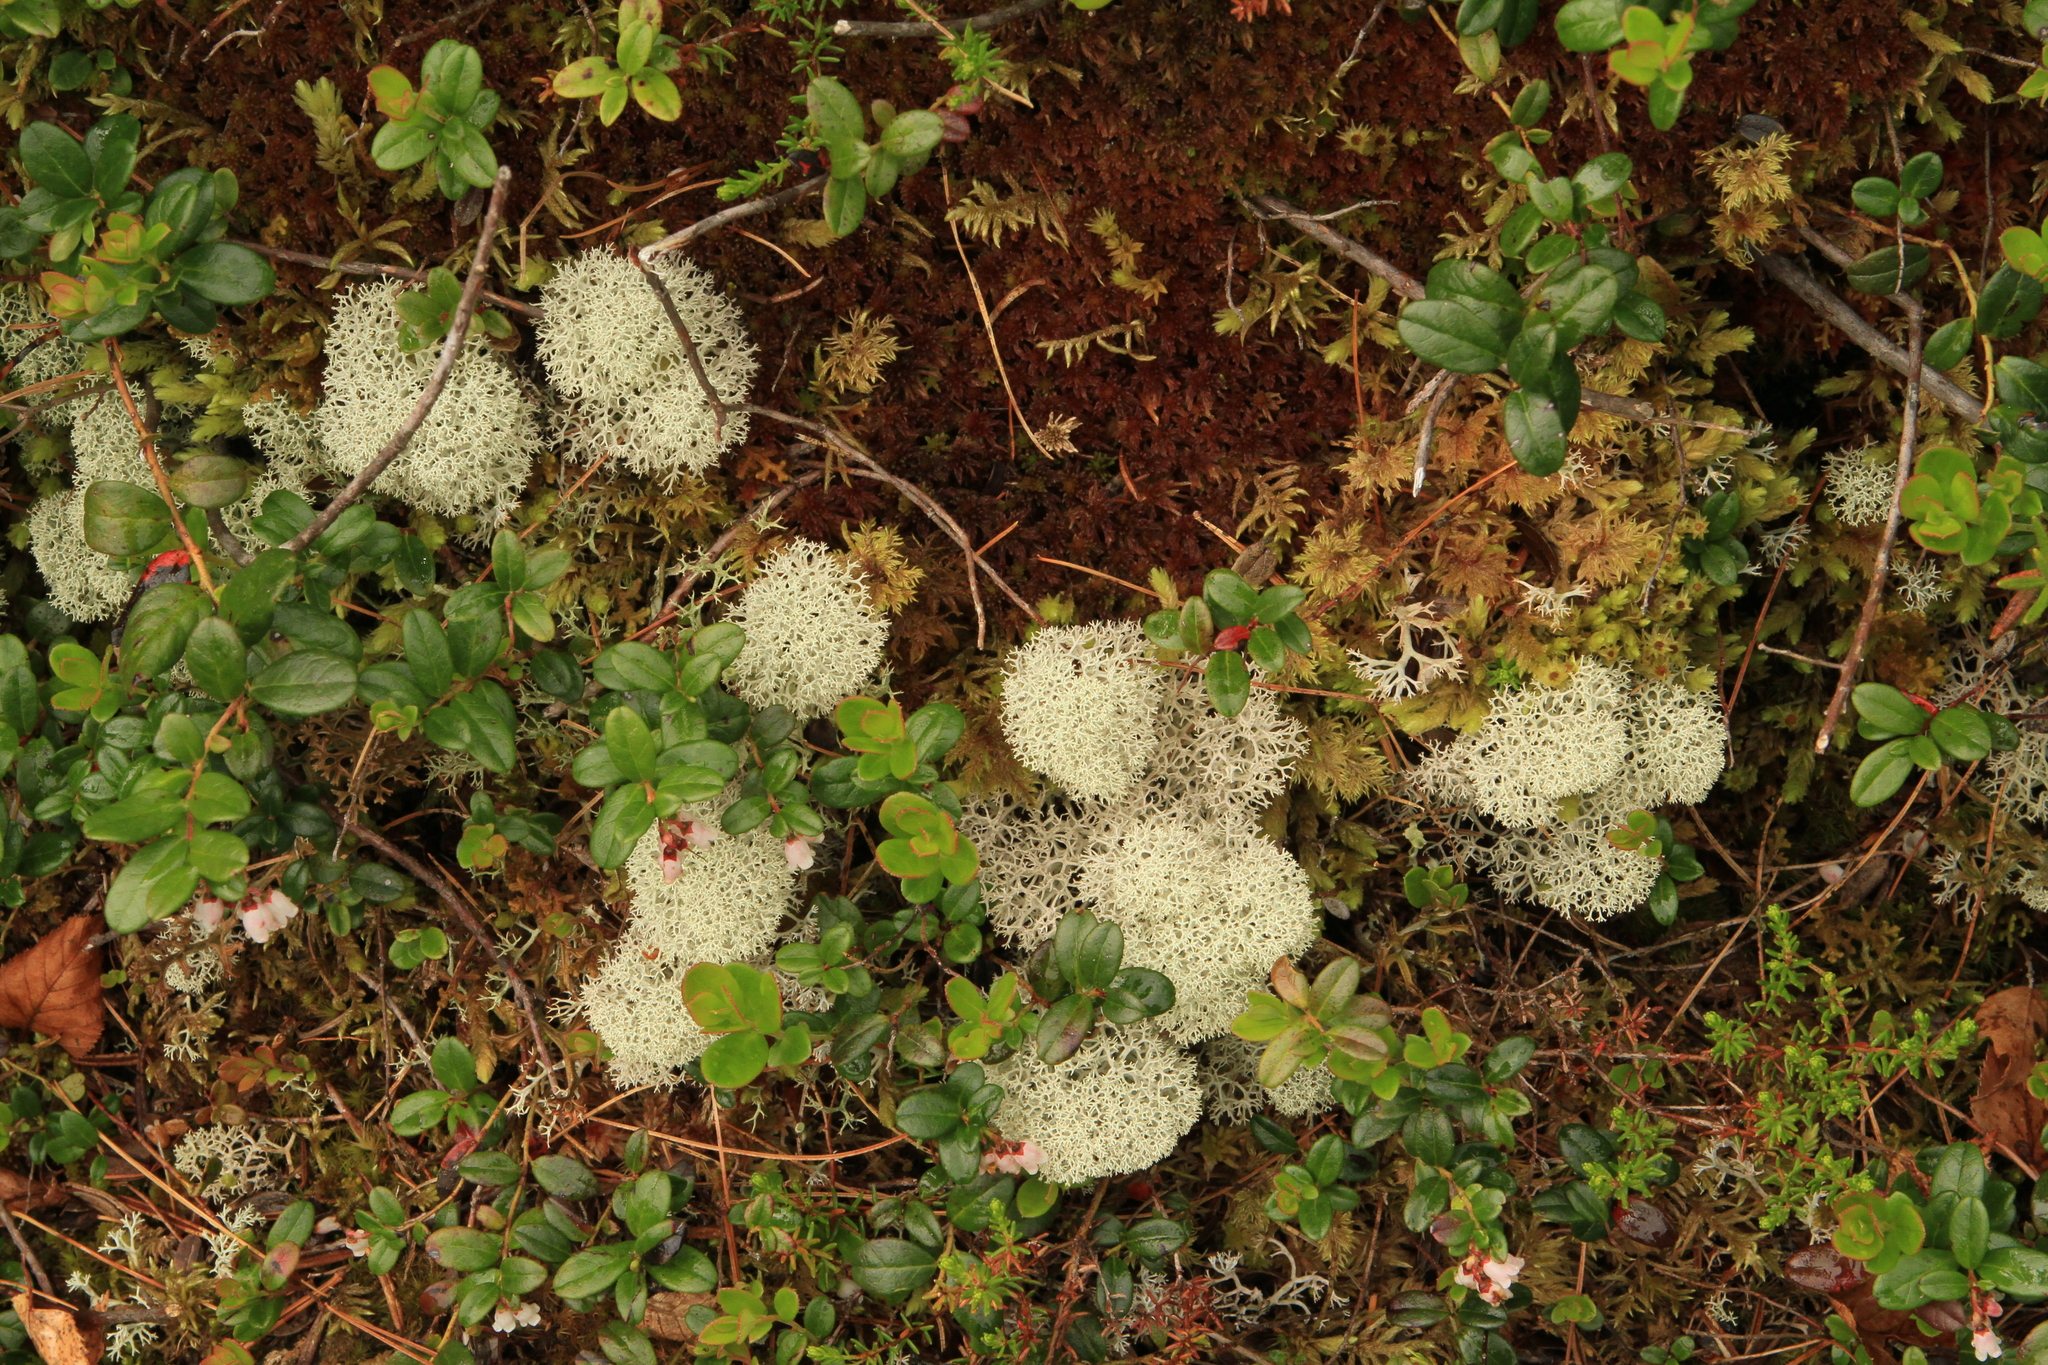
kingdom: Plantae
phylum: Tracheophyta
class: Magnoliopsida
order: Ericales
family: Ericaceae
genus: Vaccinium
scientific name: Vaccinium vitis-idaea
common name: Cowberry
